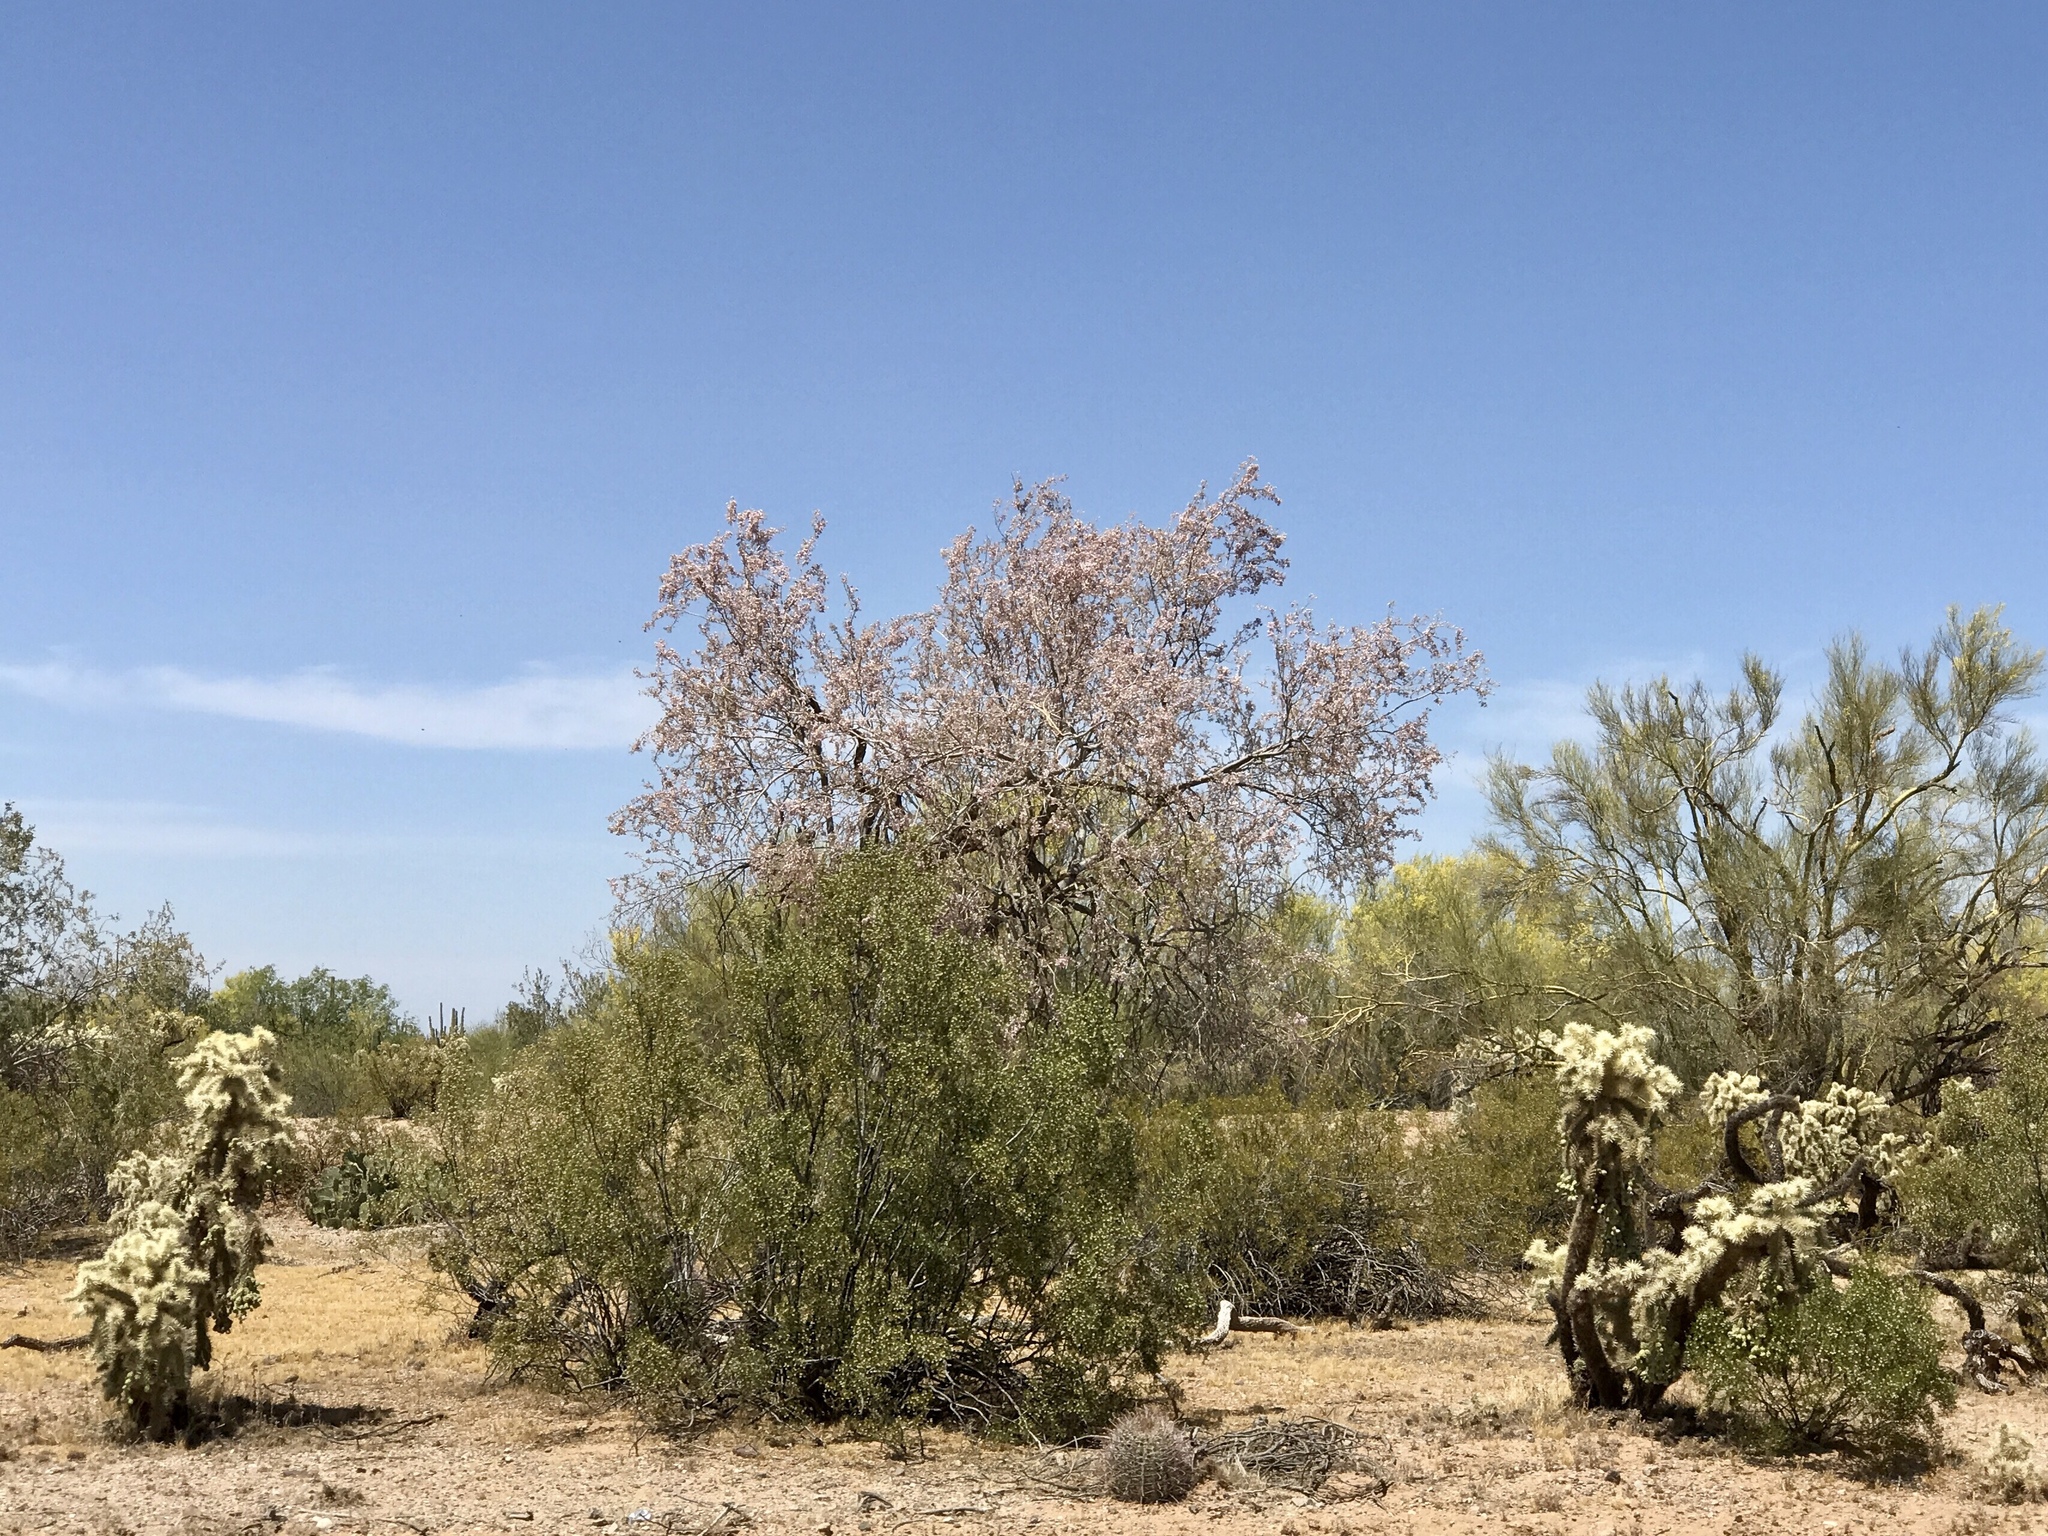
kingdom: Plantae
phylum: Tracheophyta
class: Magnoliopsida
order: Zygophyllales
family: Zygophyllaceae
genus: Larrea
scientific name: Larrea tridentata
